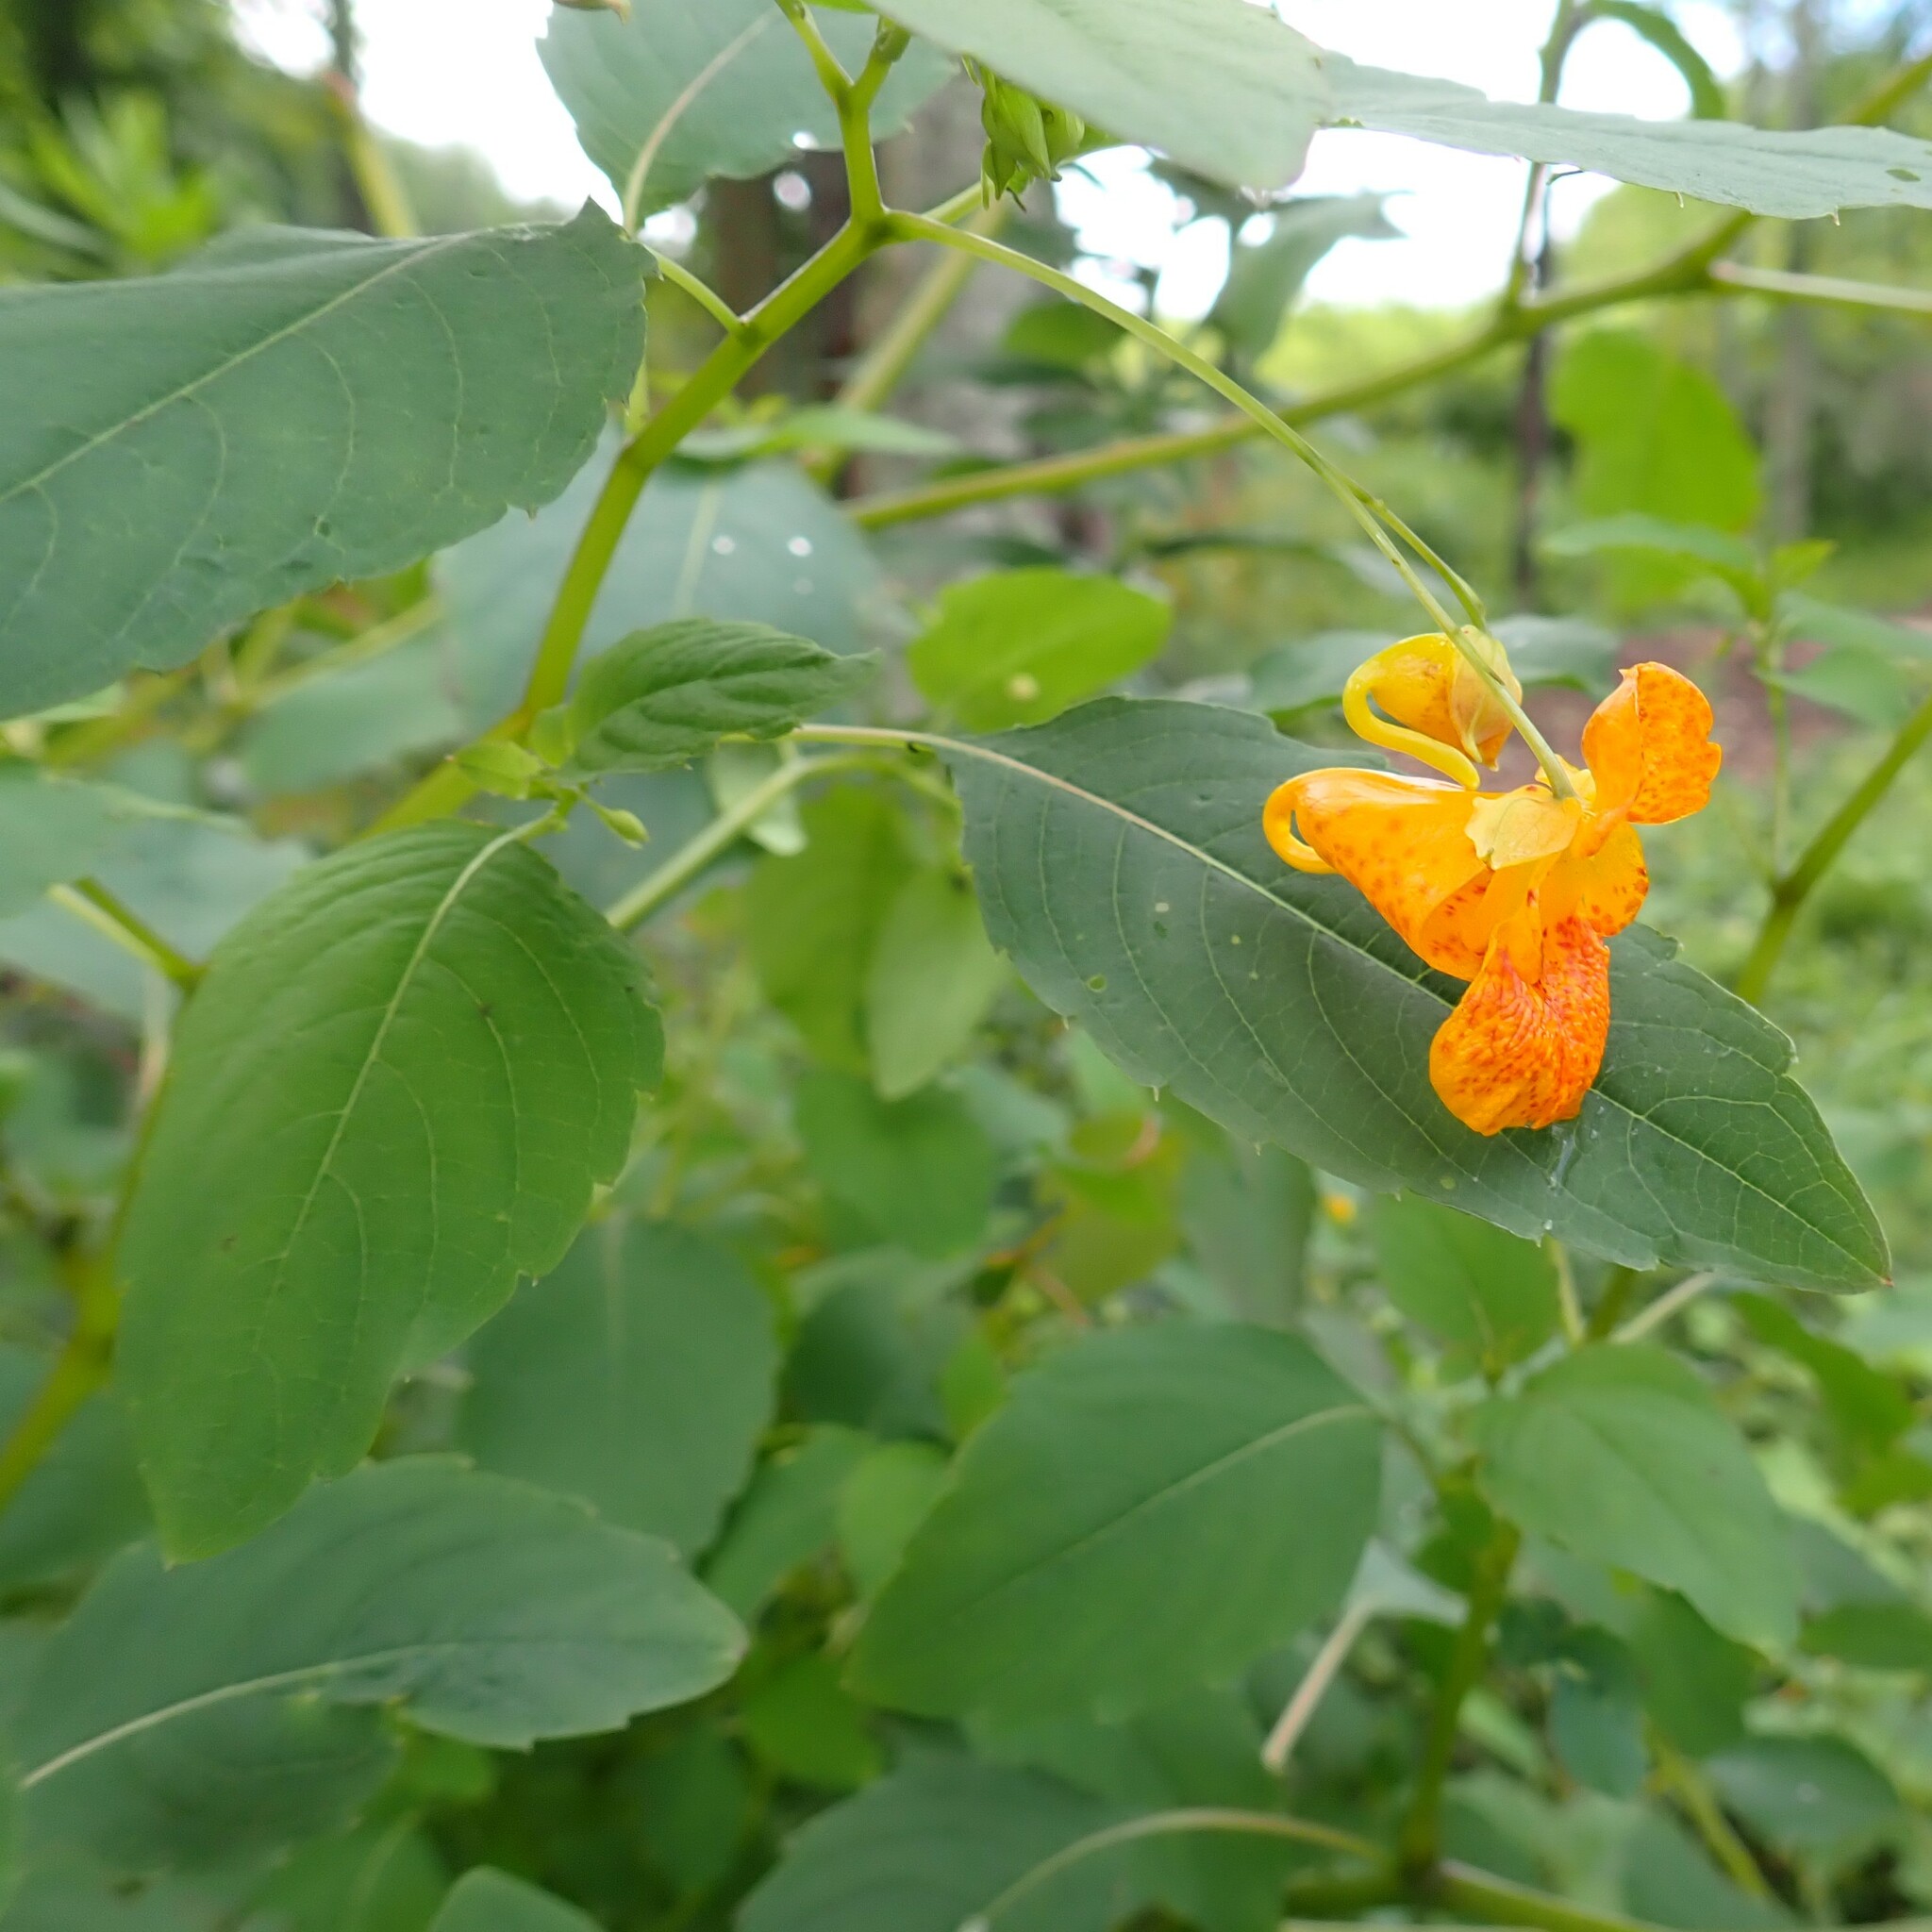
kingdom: Plantae
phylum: Tracheophyta
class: Magnoliopsida
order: Ericales
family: Balsaminaceae
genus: Impatiens
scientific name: Impatiens capensis
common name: Orange balsam
